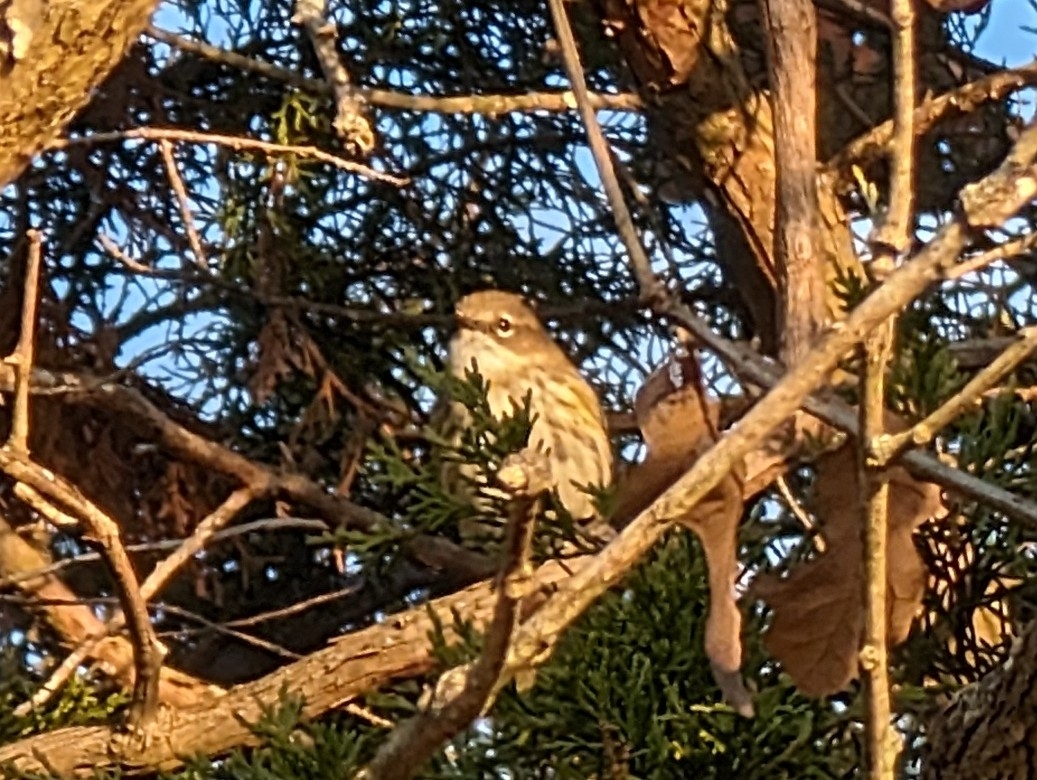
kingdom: Animalia
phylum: Chordata
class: Aves
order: Passeriformes
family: Parulidae
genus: Setophaga
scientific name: Setophaga coronata
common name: Myrtle warbler
